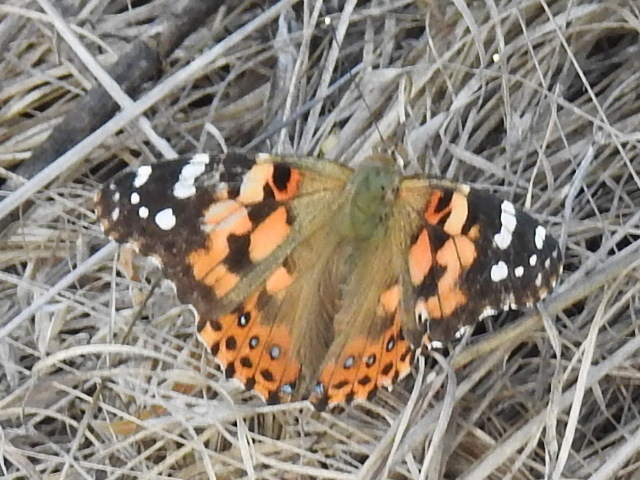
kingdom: Animalia
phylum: Arthropoda
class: Insecta
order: Lepidoptera
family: Nymphalidae
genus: Vanessa
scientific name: Vanessa cardui
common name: Painted lady
